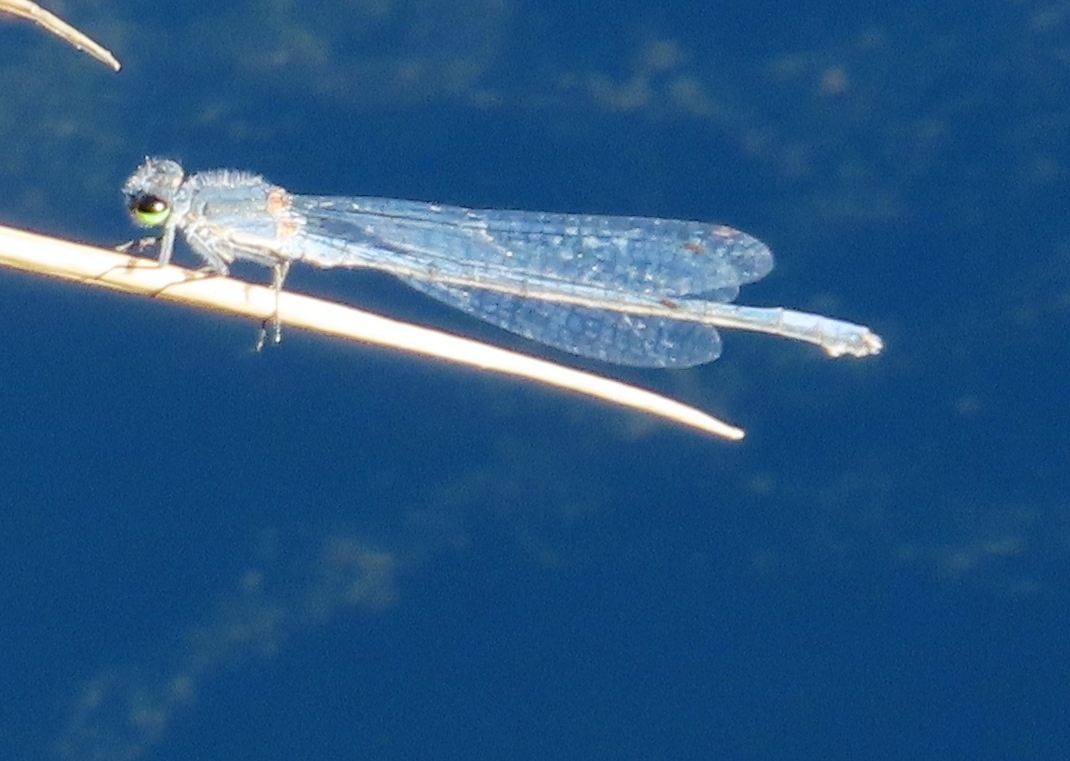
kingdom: Animalia
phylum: Arthropoda
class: Insecta
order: Odonata
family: Coenagrionidae
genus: Pseudagrion
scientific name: Pseudagrion draconis
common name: Mountain sprite
